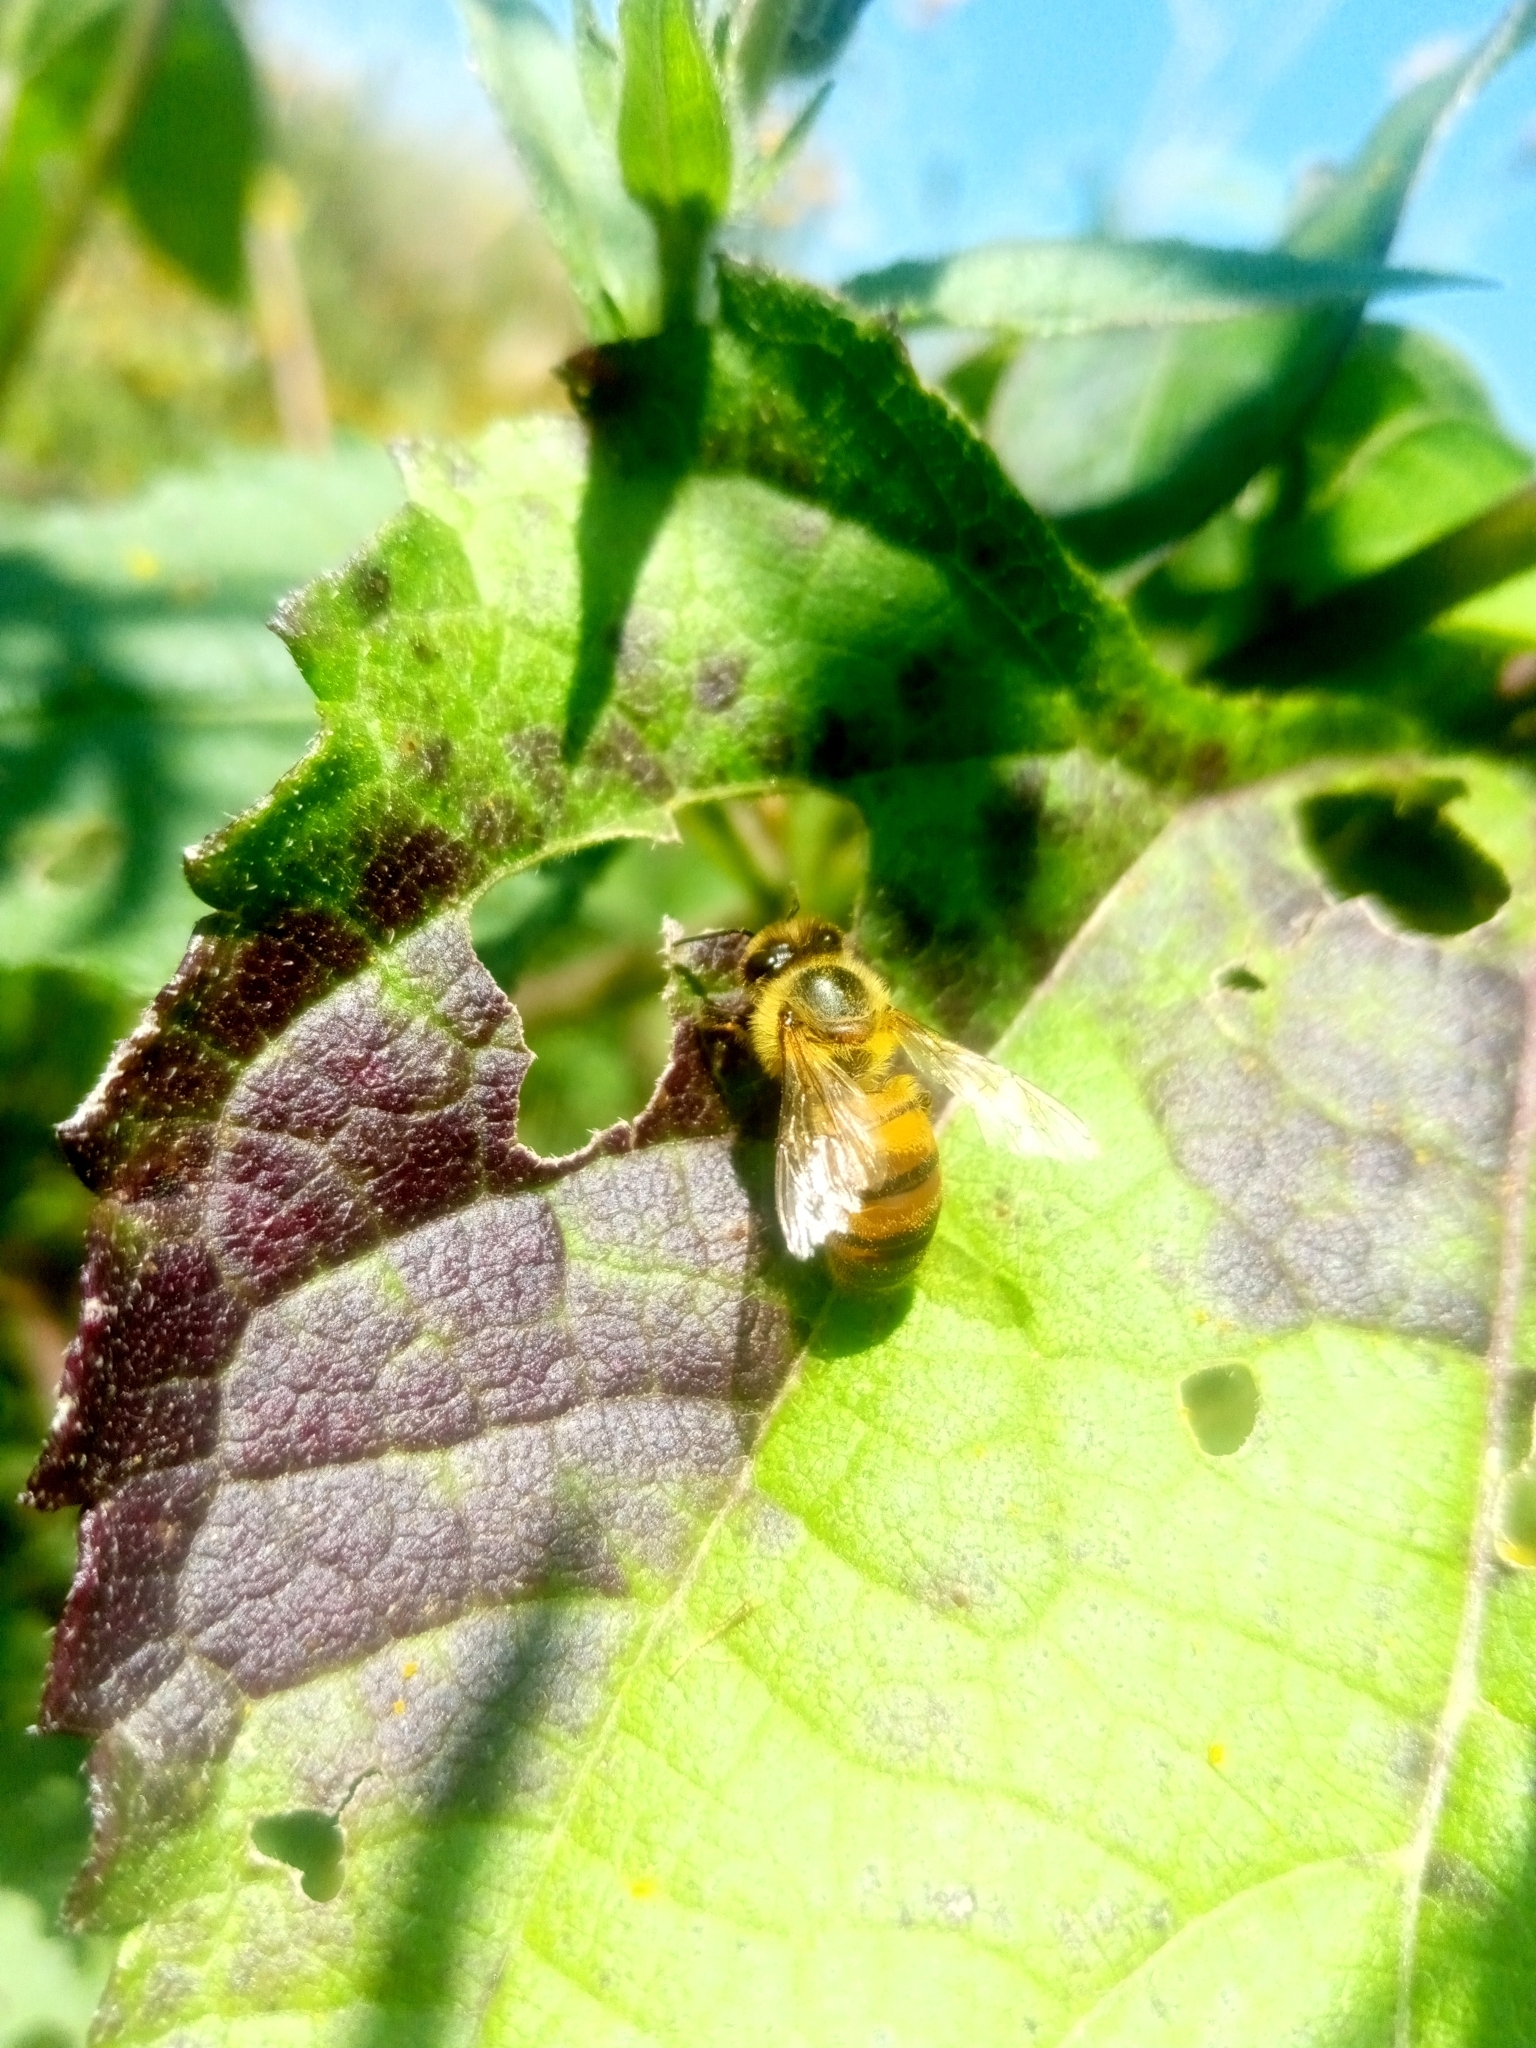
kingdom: Animalia
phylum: Arthropoda
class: Insecta
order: Hymenoptera
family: Apidae
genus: Apis
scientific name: Apis mellifera
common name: Honey bee
